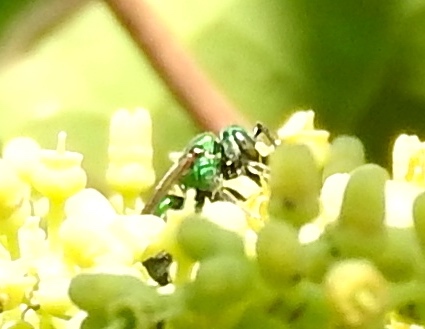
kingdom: Animalia
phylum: Arthropoda
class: Insecta
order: Hymenoptera
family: Halictidae
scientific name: Halictidae
